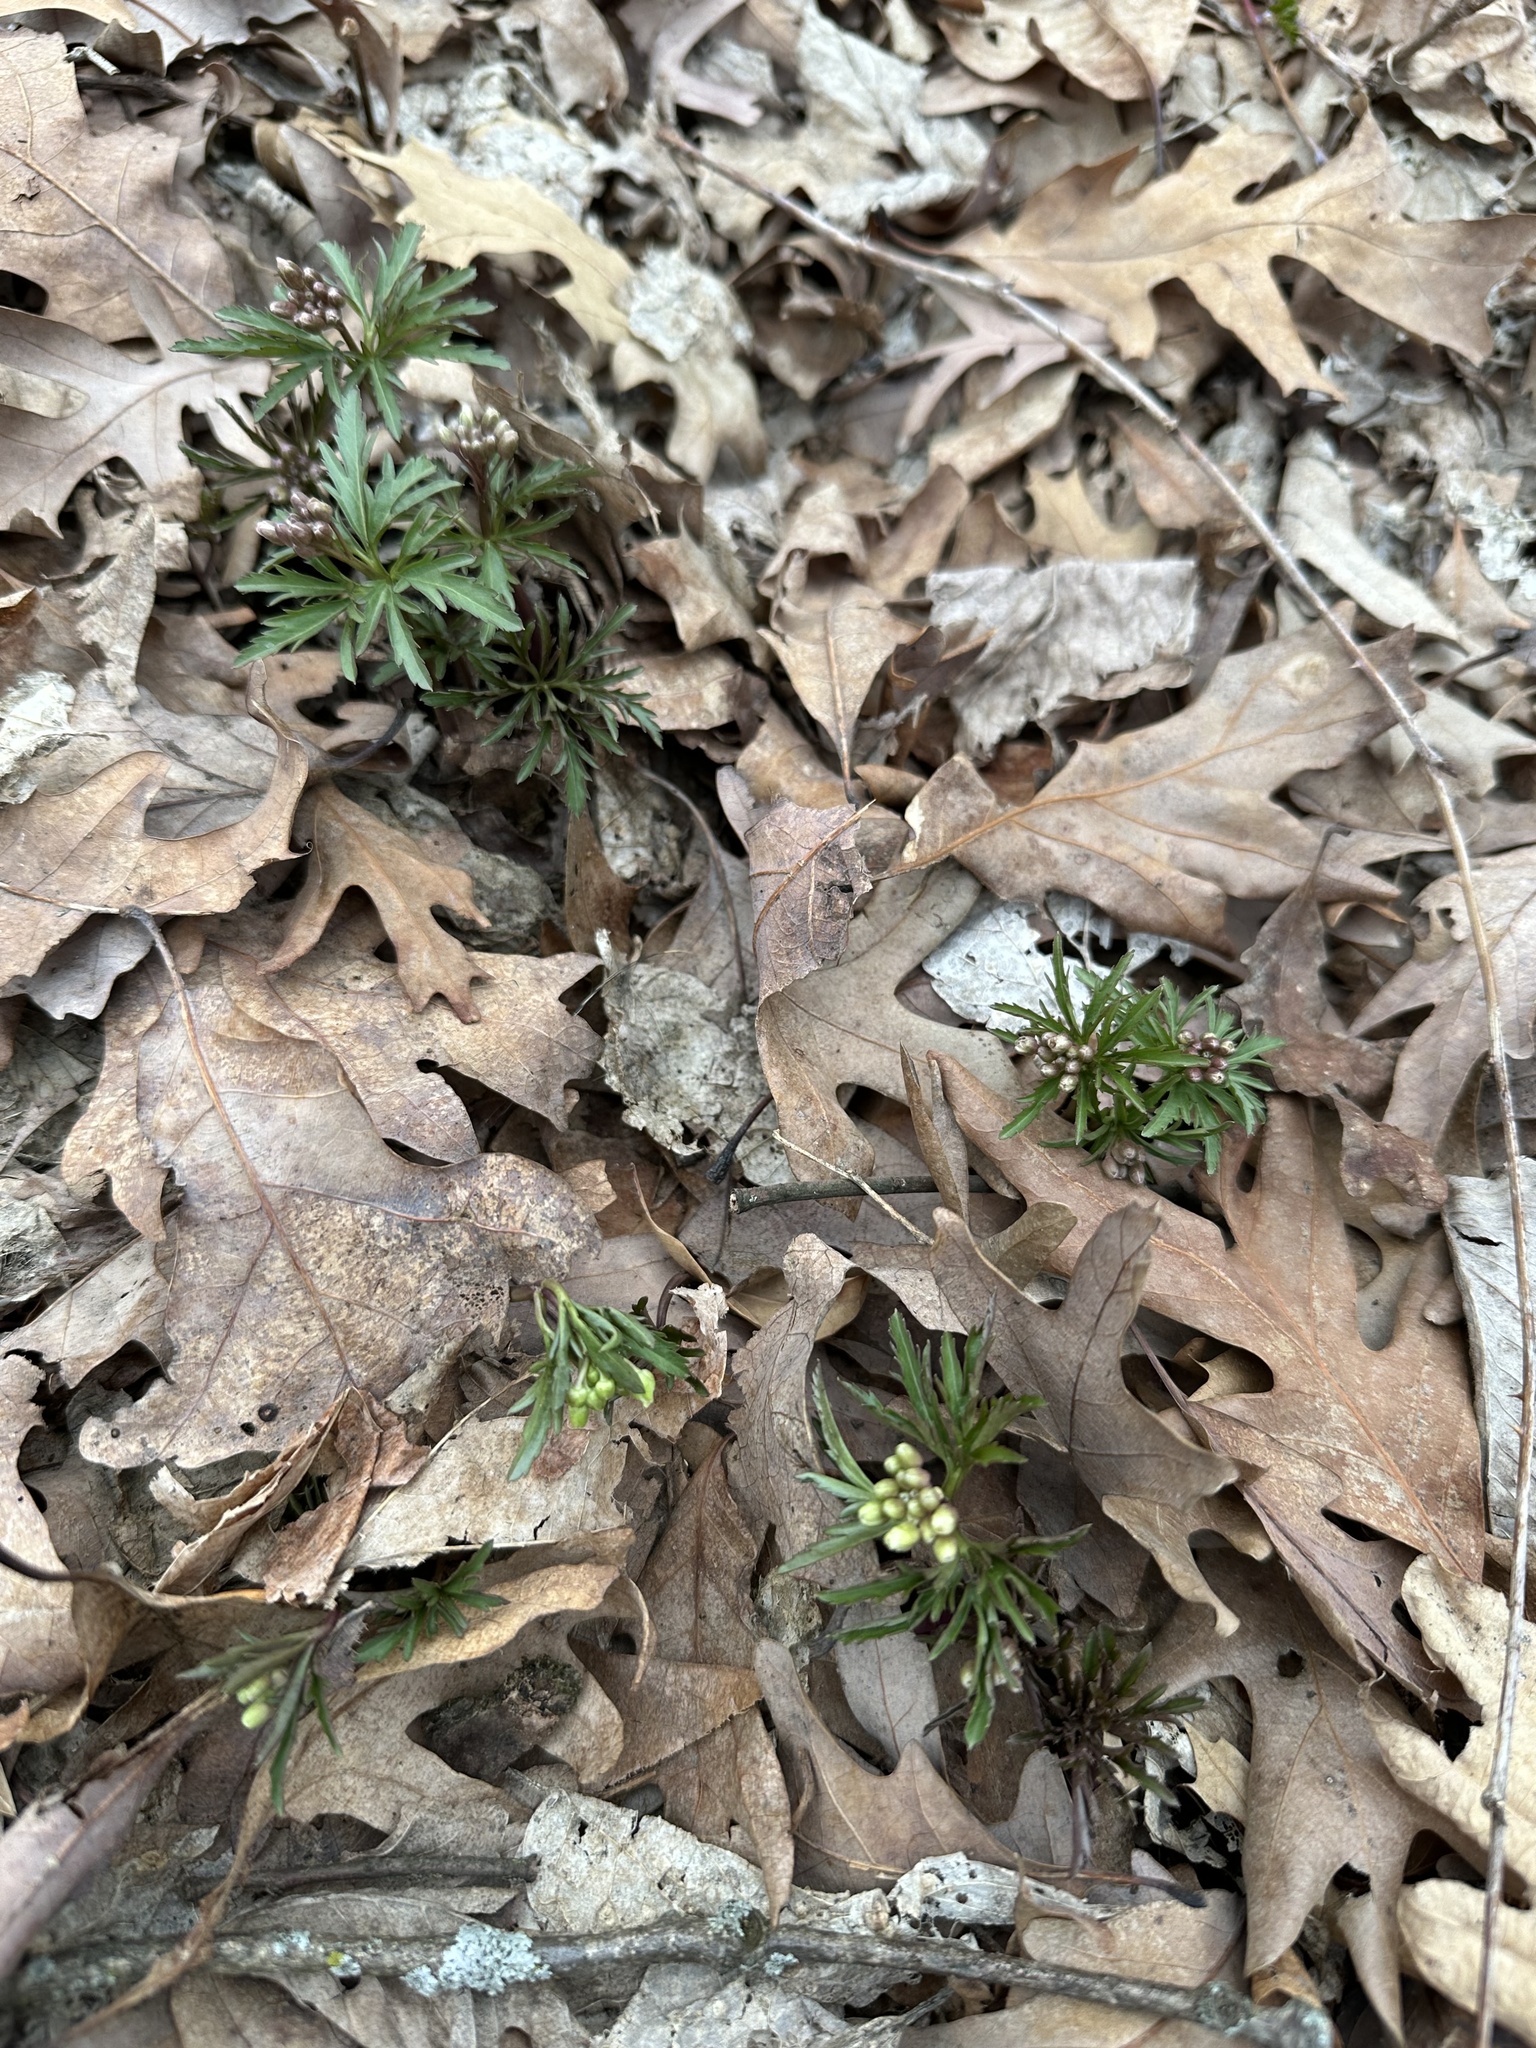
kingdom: Plantae
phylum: Tracheophyta
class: Magnoliopsida
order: Brassicales
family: Brassicaceae
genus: Cardamine
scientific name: Cardamine concatenata
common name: Cut-leaf toothcup
